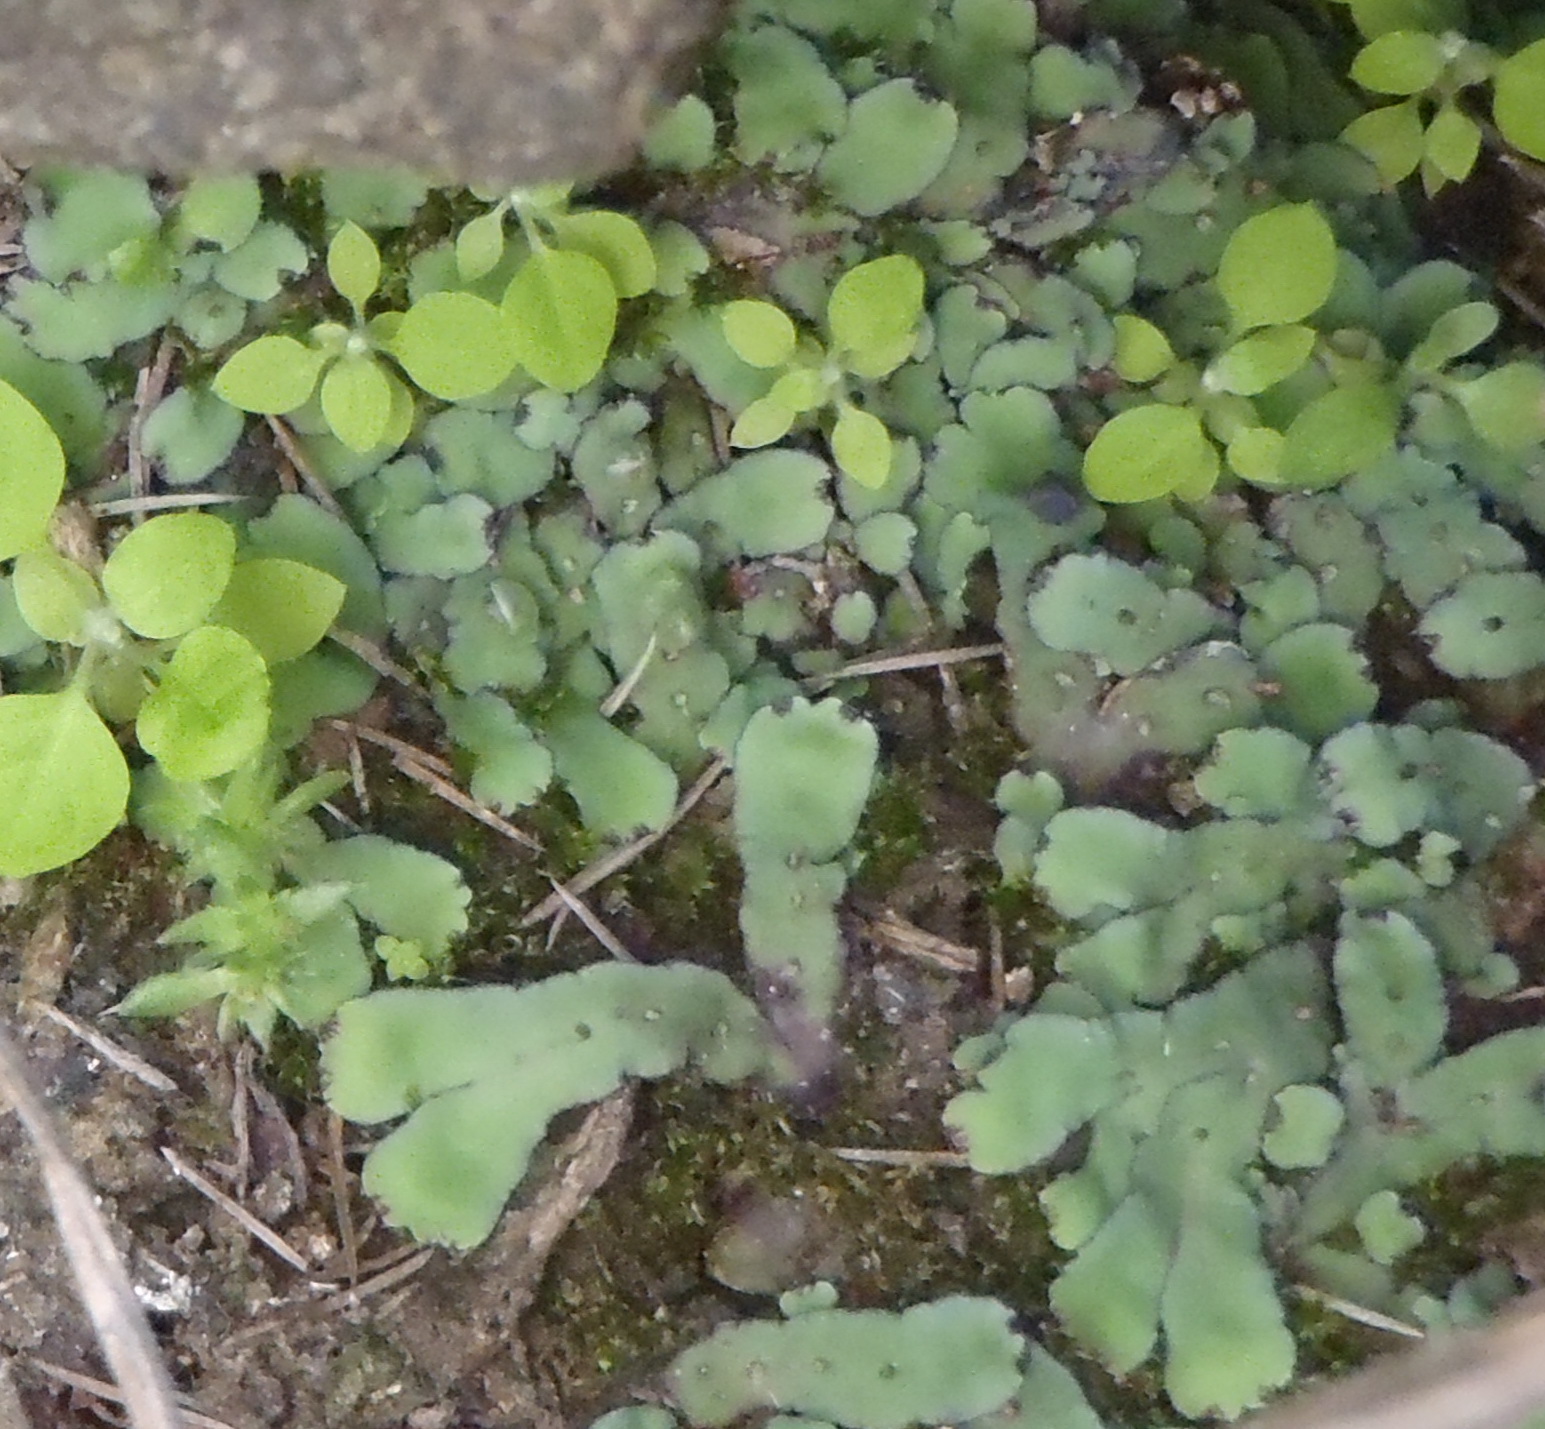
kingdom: Plantae
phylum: Marchantiophyta
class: Marchantiopsida
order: Marchantiales
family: Aytoniaceae
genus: Plagiochasma
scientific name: Plagiochasma rupestre
